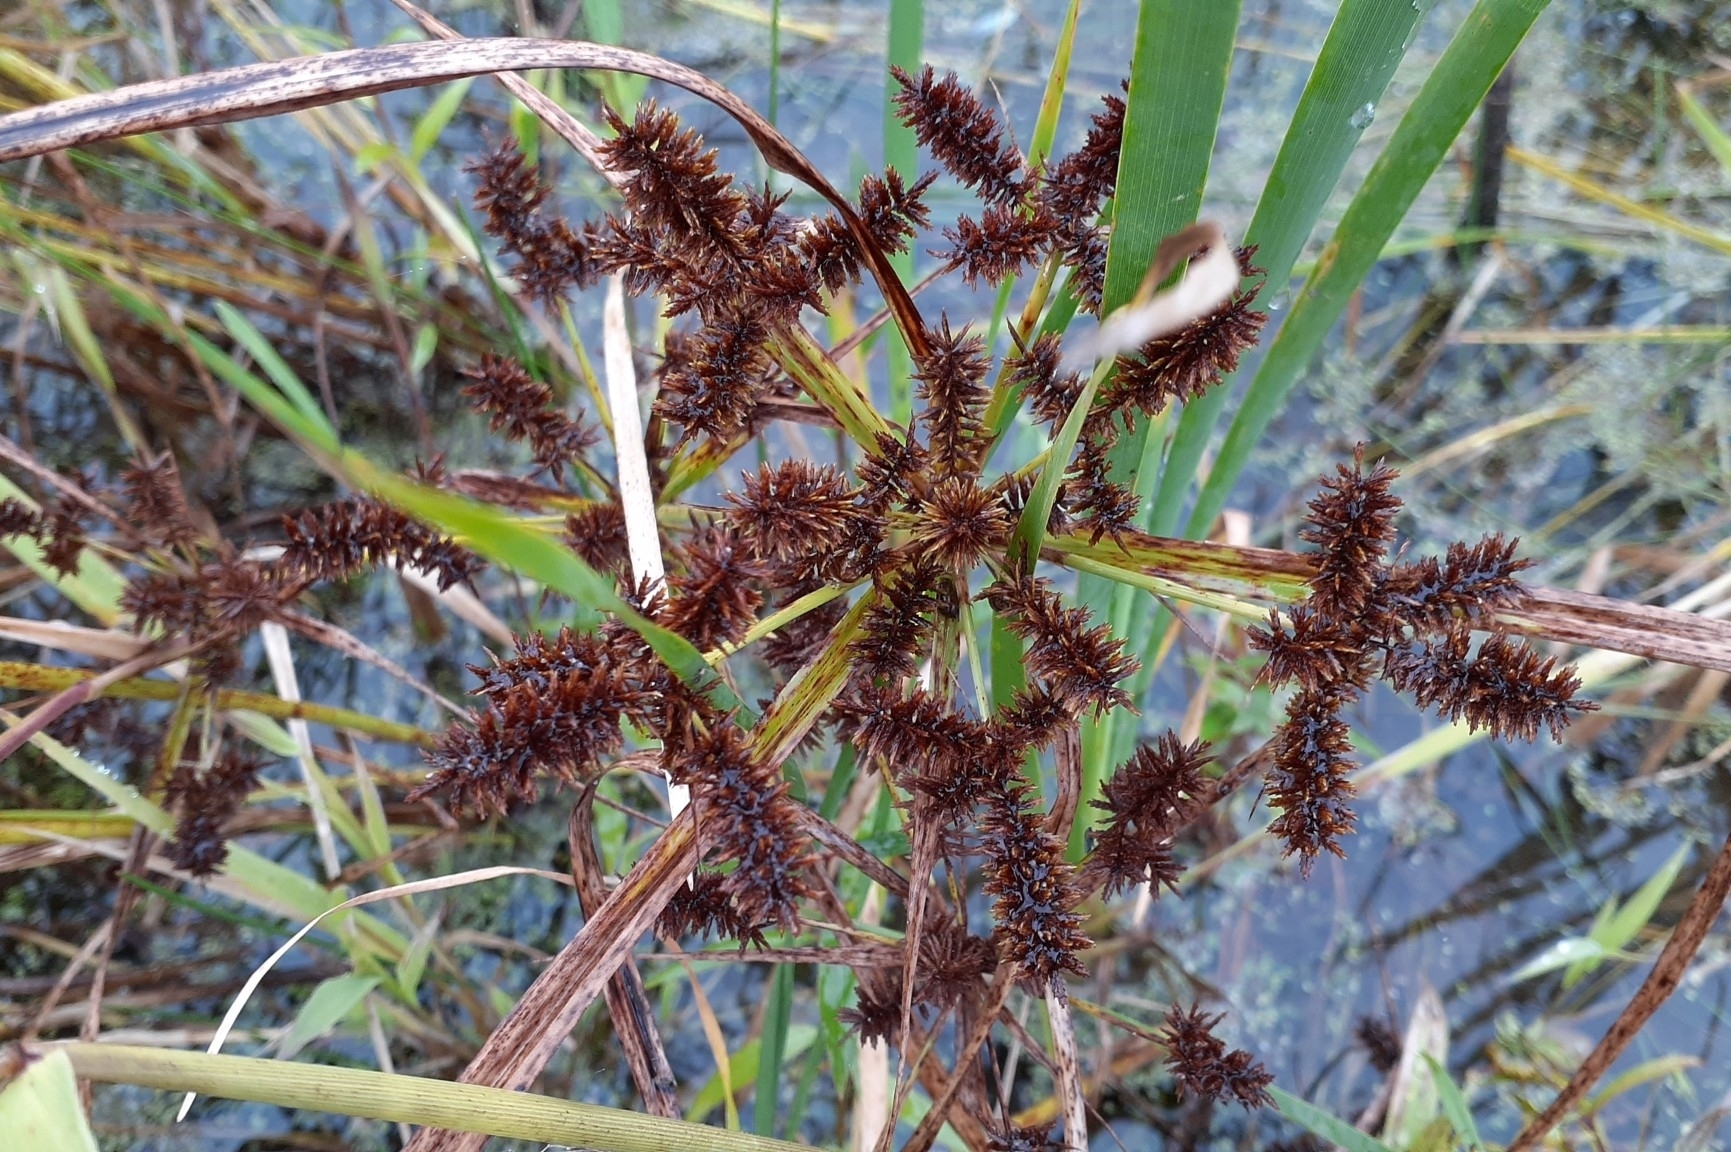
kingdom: Plantae
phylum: Tracheophyta
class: Liliopsida
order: Poales
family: Cyperaceae
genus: Cyperus
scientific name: Cyperus erythrorhizos
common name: Red-root flat sedge
